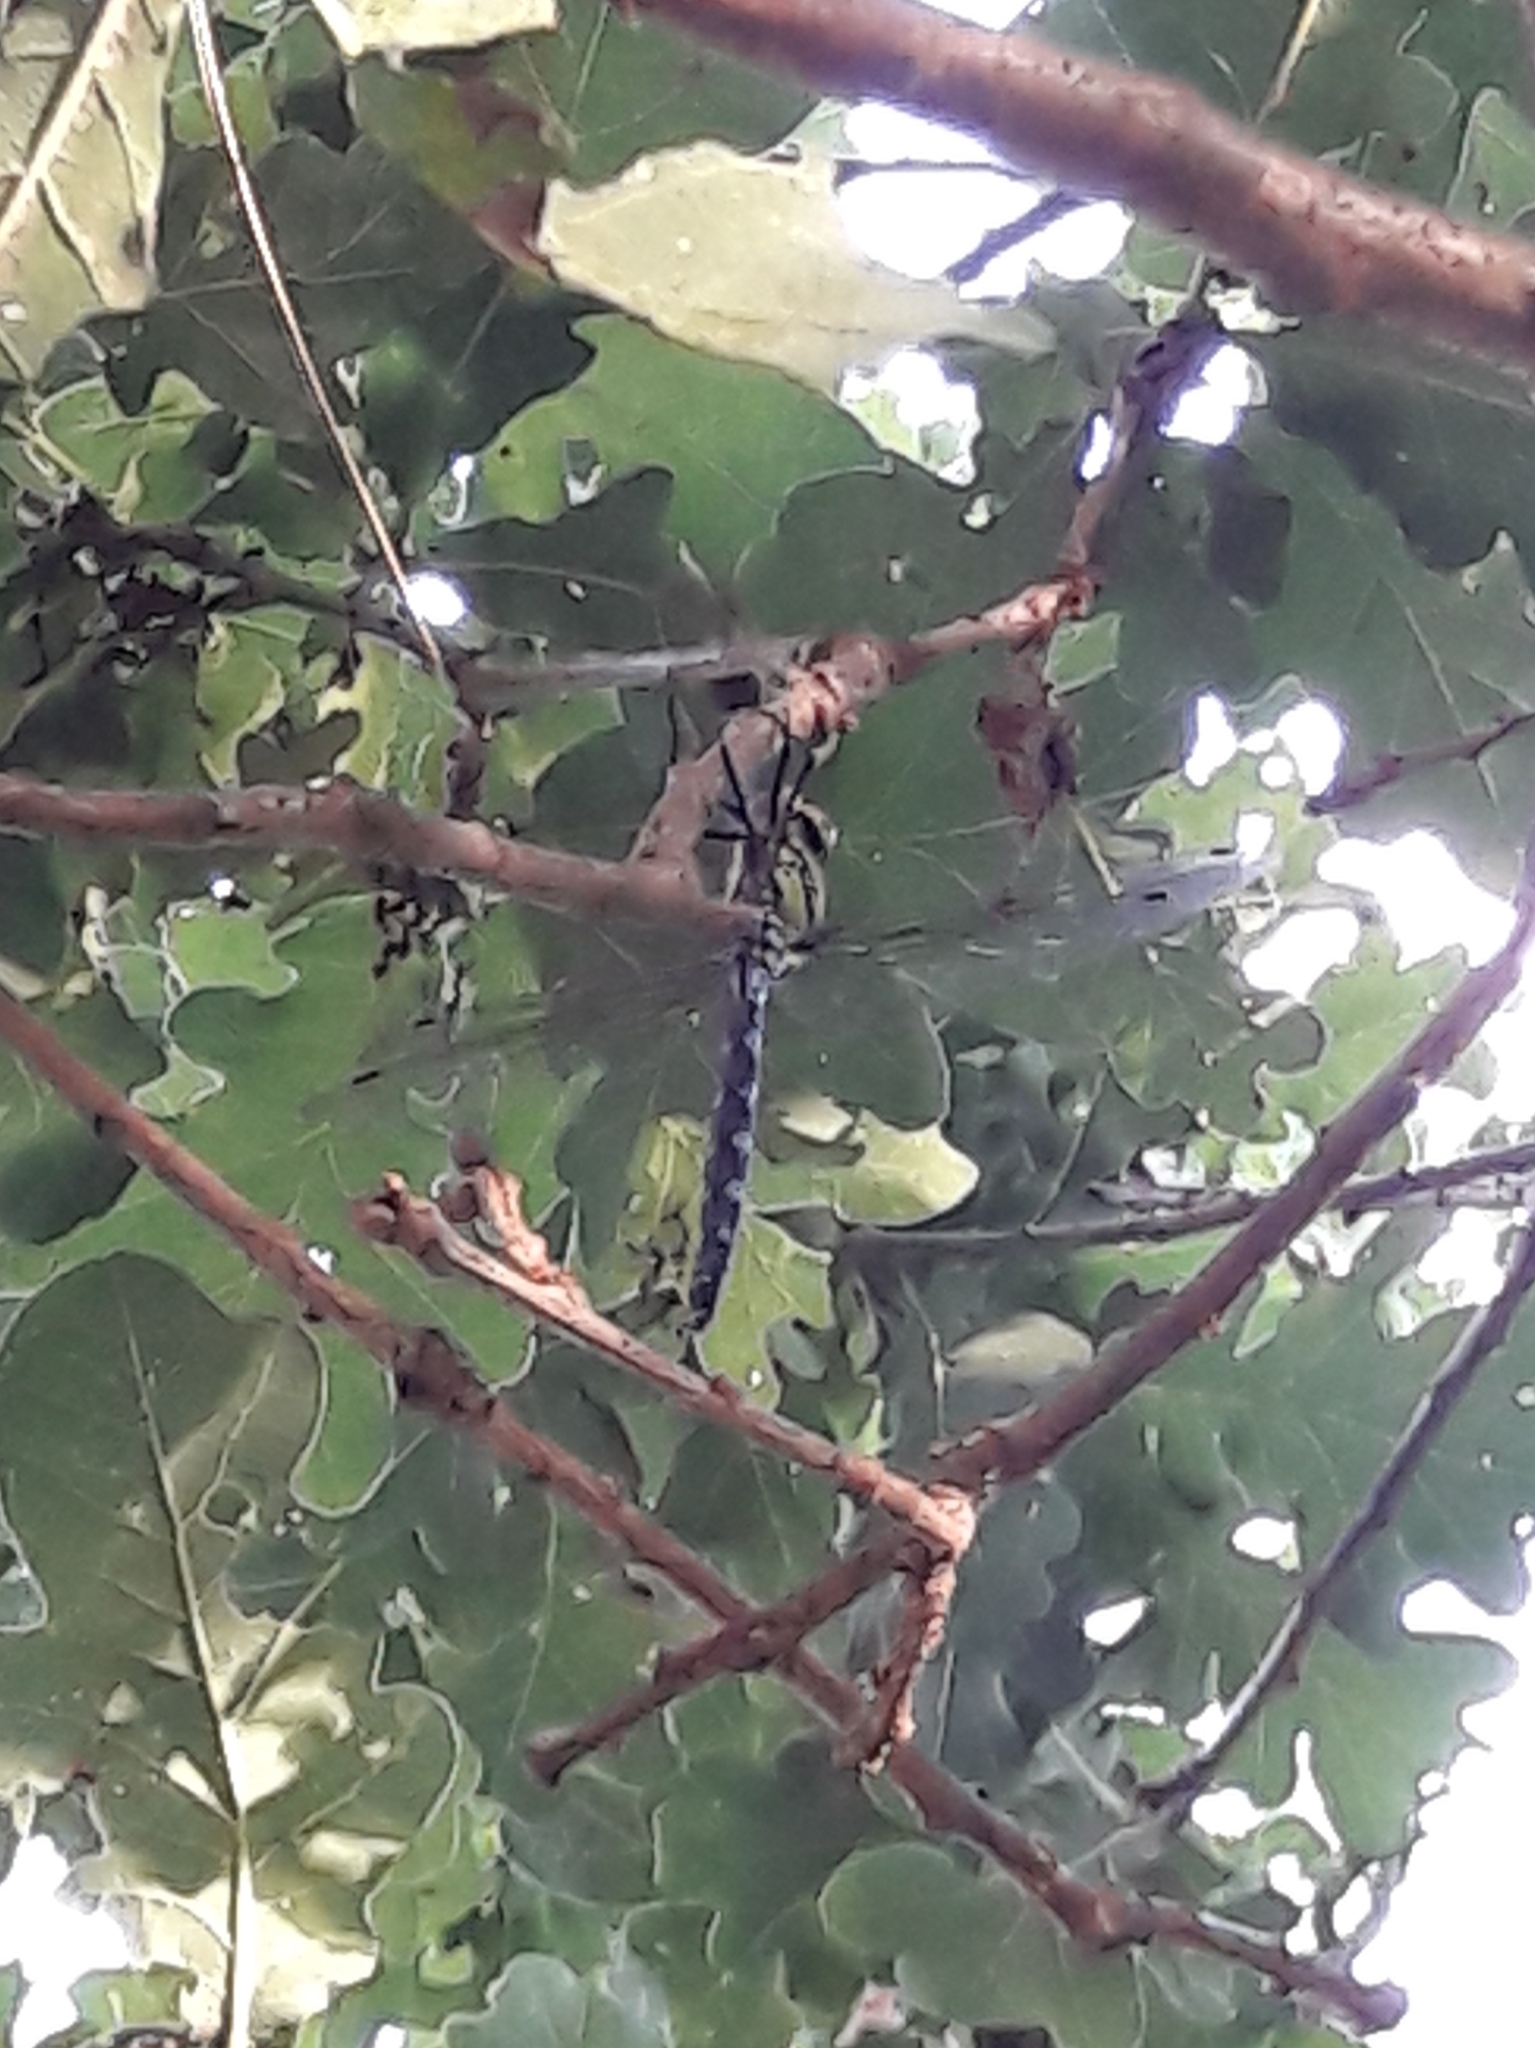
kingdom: Animalia
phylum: Arthropoda
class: Insecta
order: Odonata
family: Aeshnidae
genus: Aeshna
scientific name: Aeshna cyanea
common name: Southern hawker
